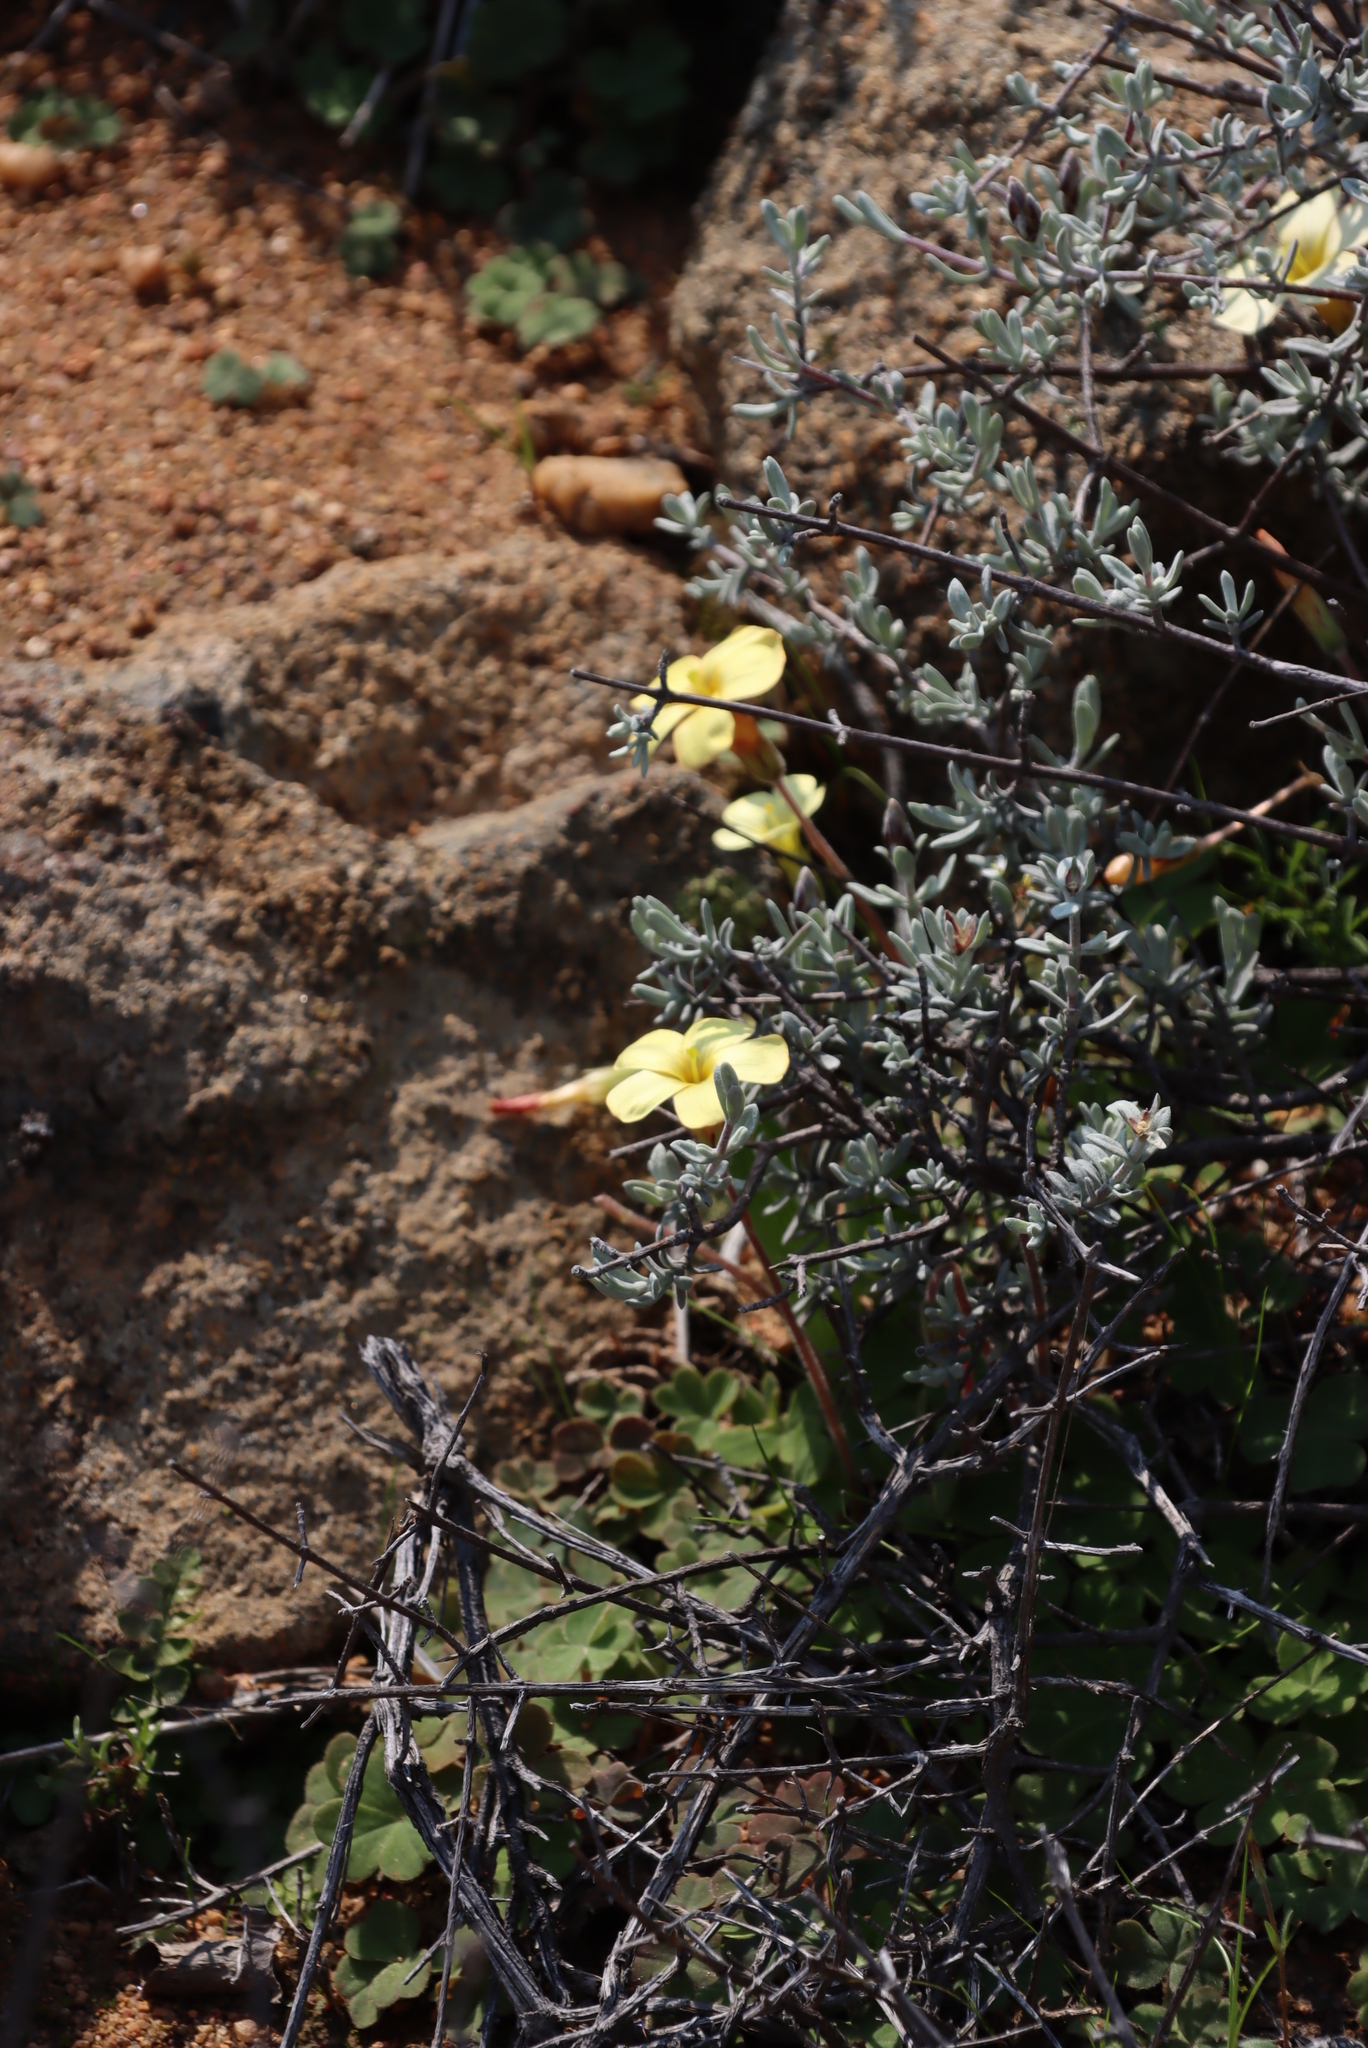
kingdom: Plantae
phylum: Tracheophyta
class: Magnoliopsida
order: Oxalidales
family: Oxalidaceae
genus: Oxalis
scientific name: Oxalis obtusa
